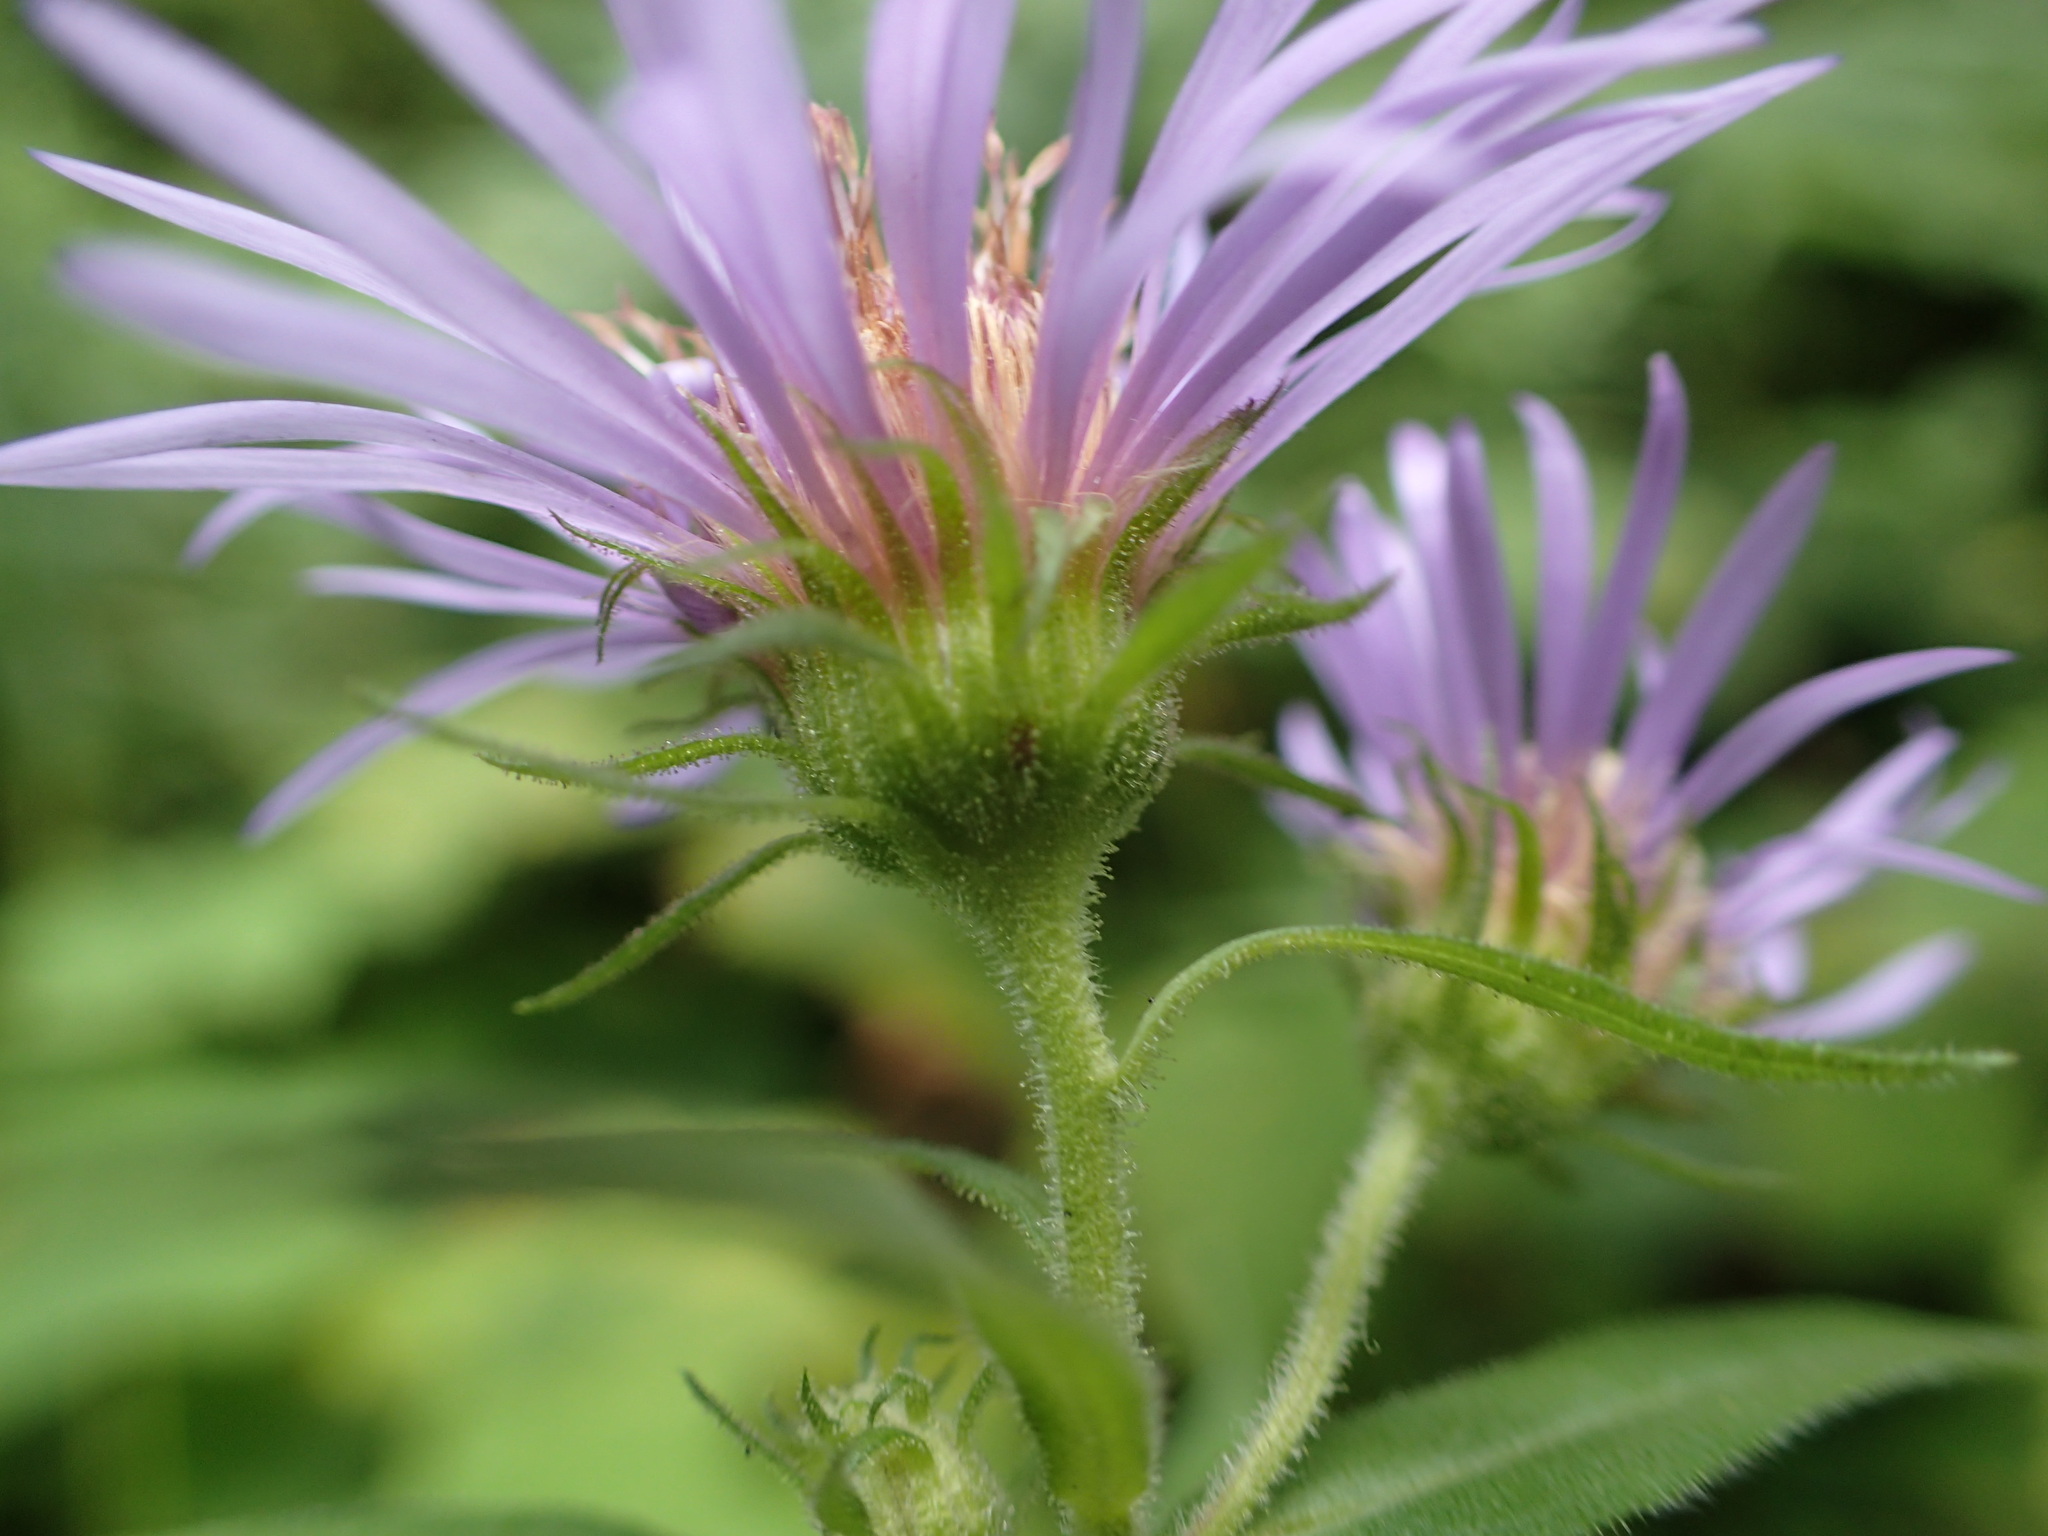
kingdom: Plantae
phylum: Tracheophyta
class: Magnoliopsida
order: Asterales
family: Asteraceae
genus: Canadanthus
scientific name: Canadanthus modestus
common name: Great northern aster
